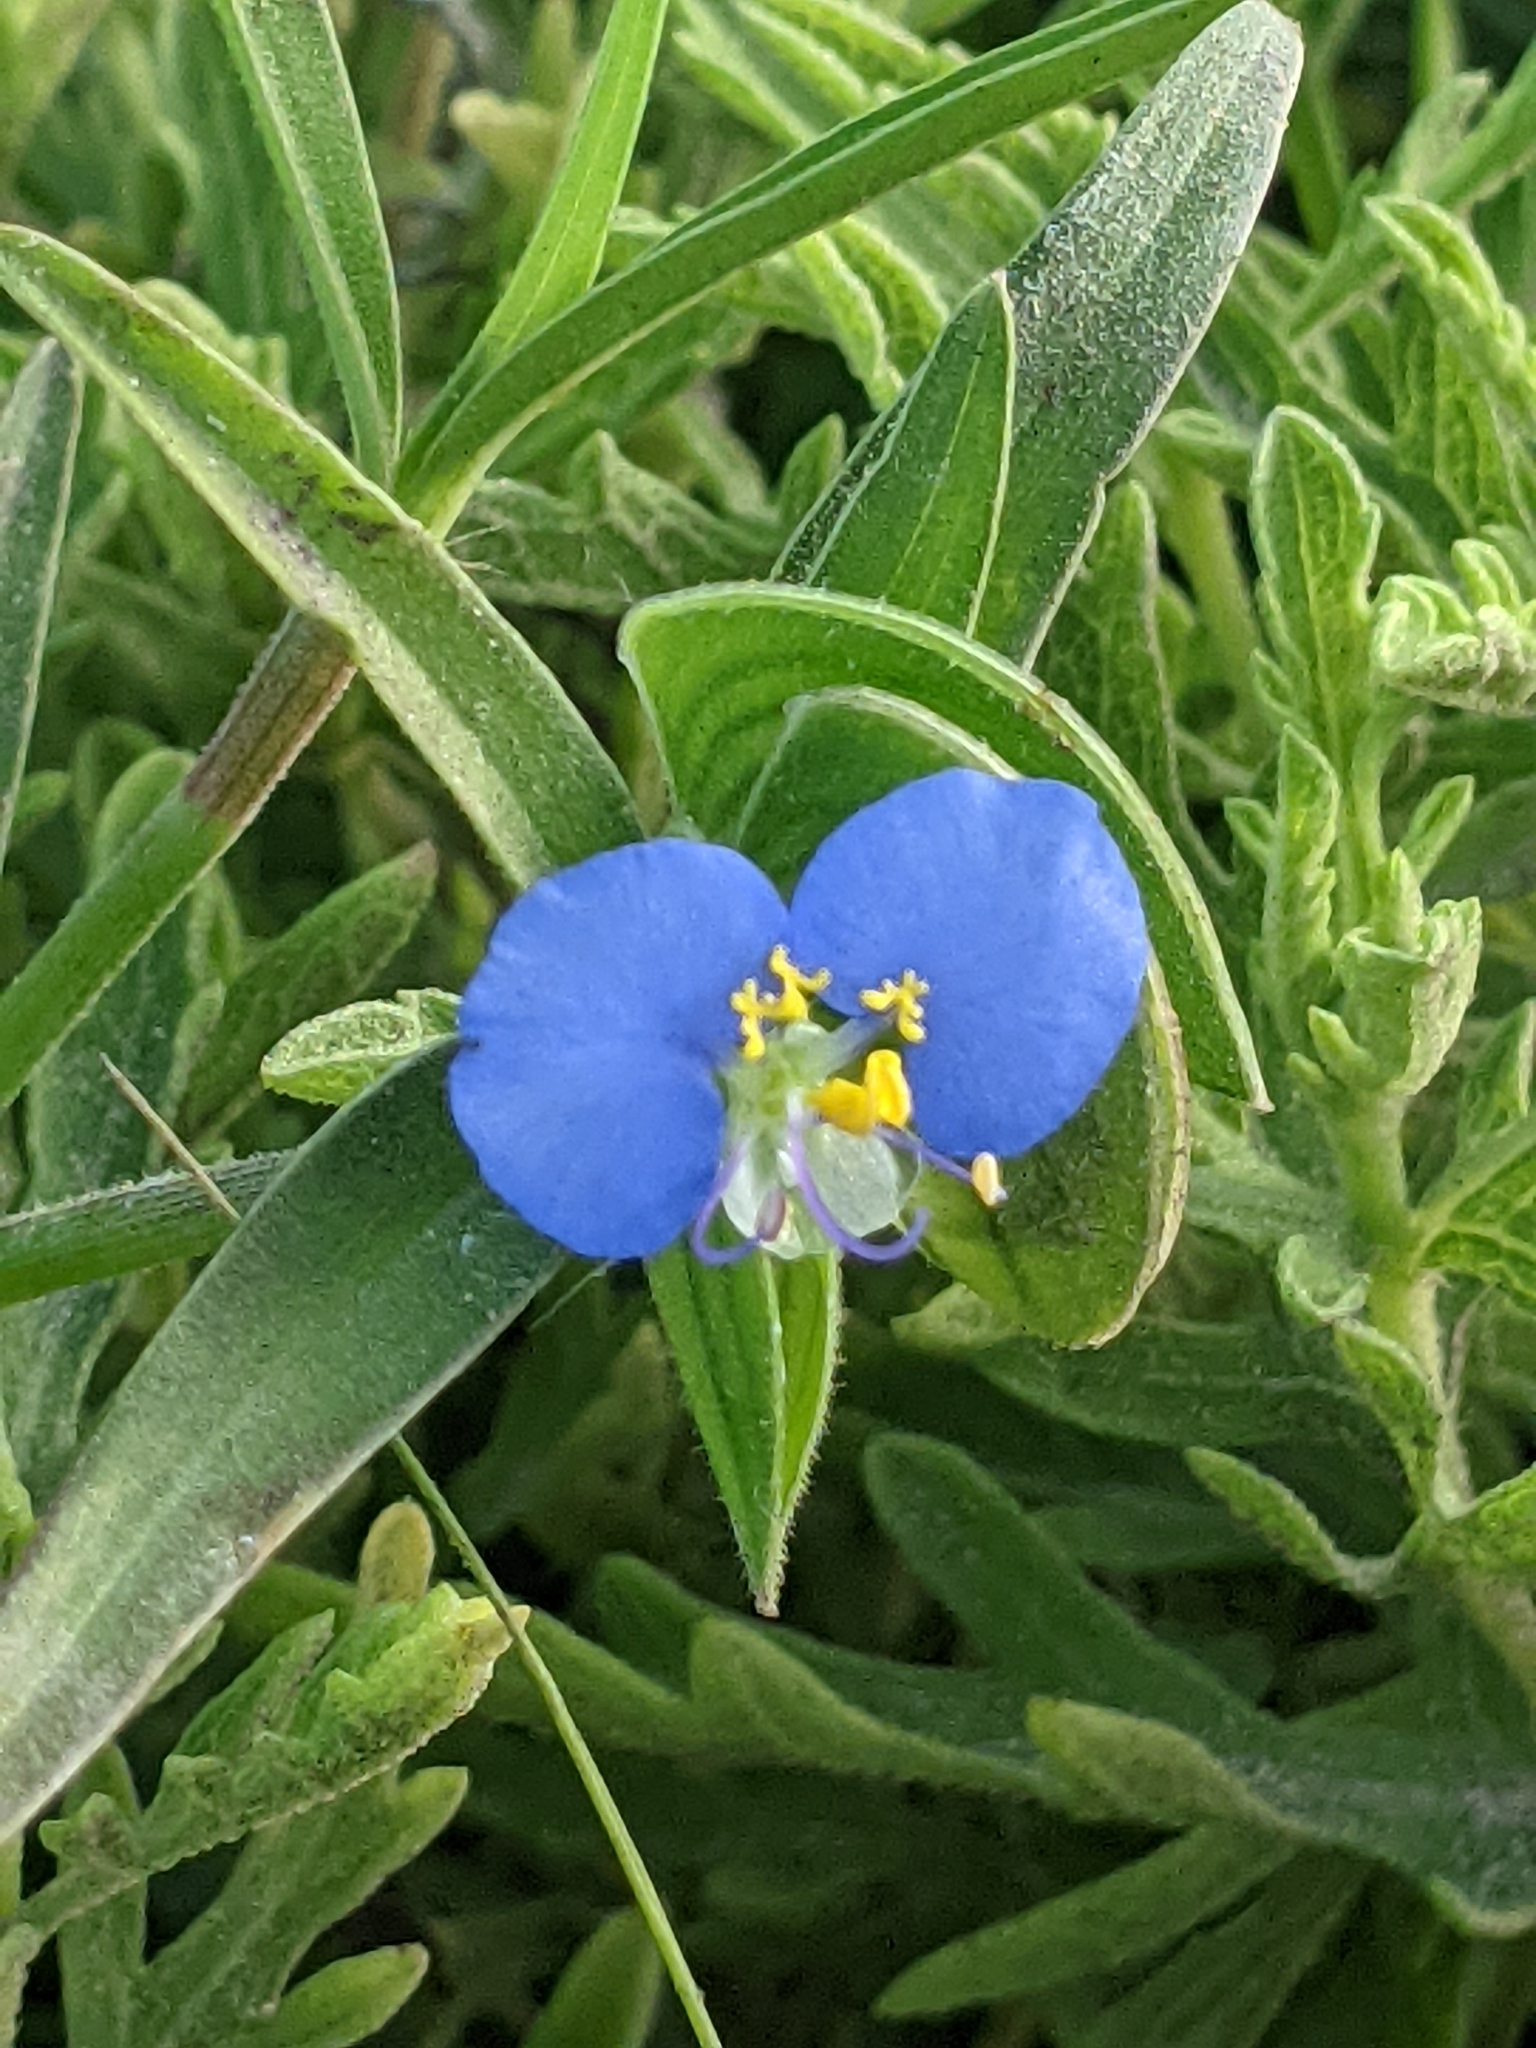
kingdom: Plantae
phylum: Tracheophyta
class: Liliopsida
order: Commelinales
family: Commelinaceae
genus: Commelina
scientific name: Commelina erecta
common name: Blousel blommetjie
